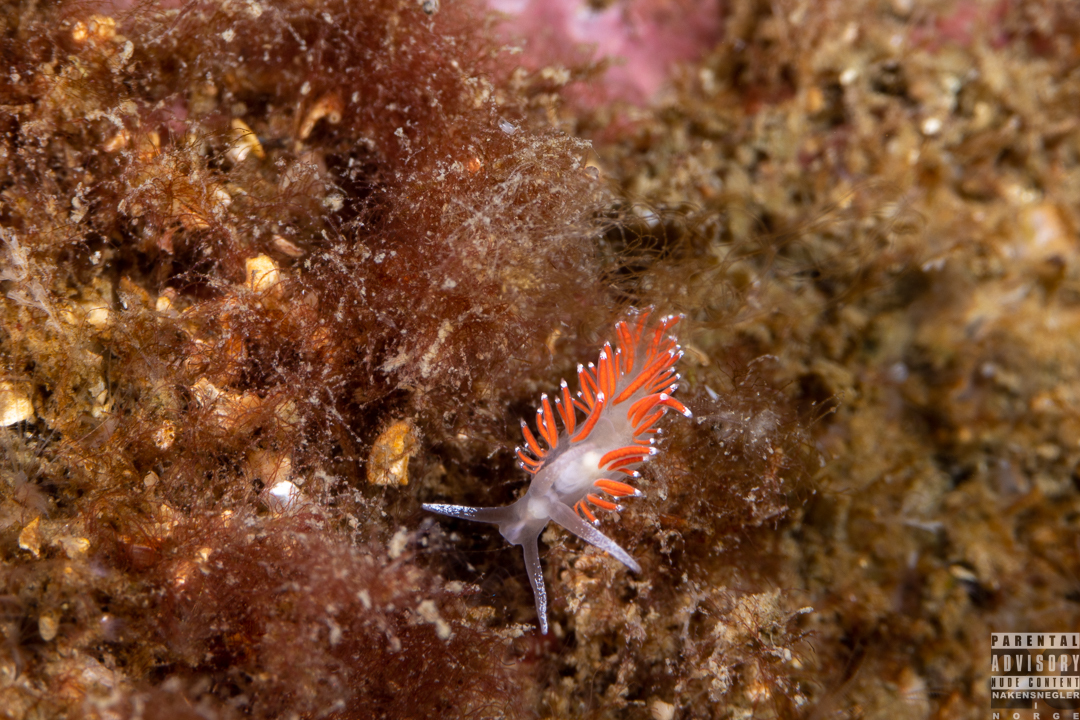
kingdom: Animalia
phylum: Mollusca
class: Gastropoda
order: Nudibranchia
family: Coryphellidae
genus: Coryphella
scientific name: Coryphella gracilis
